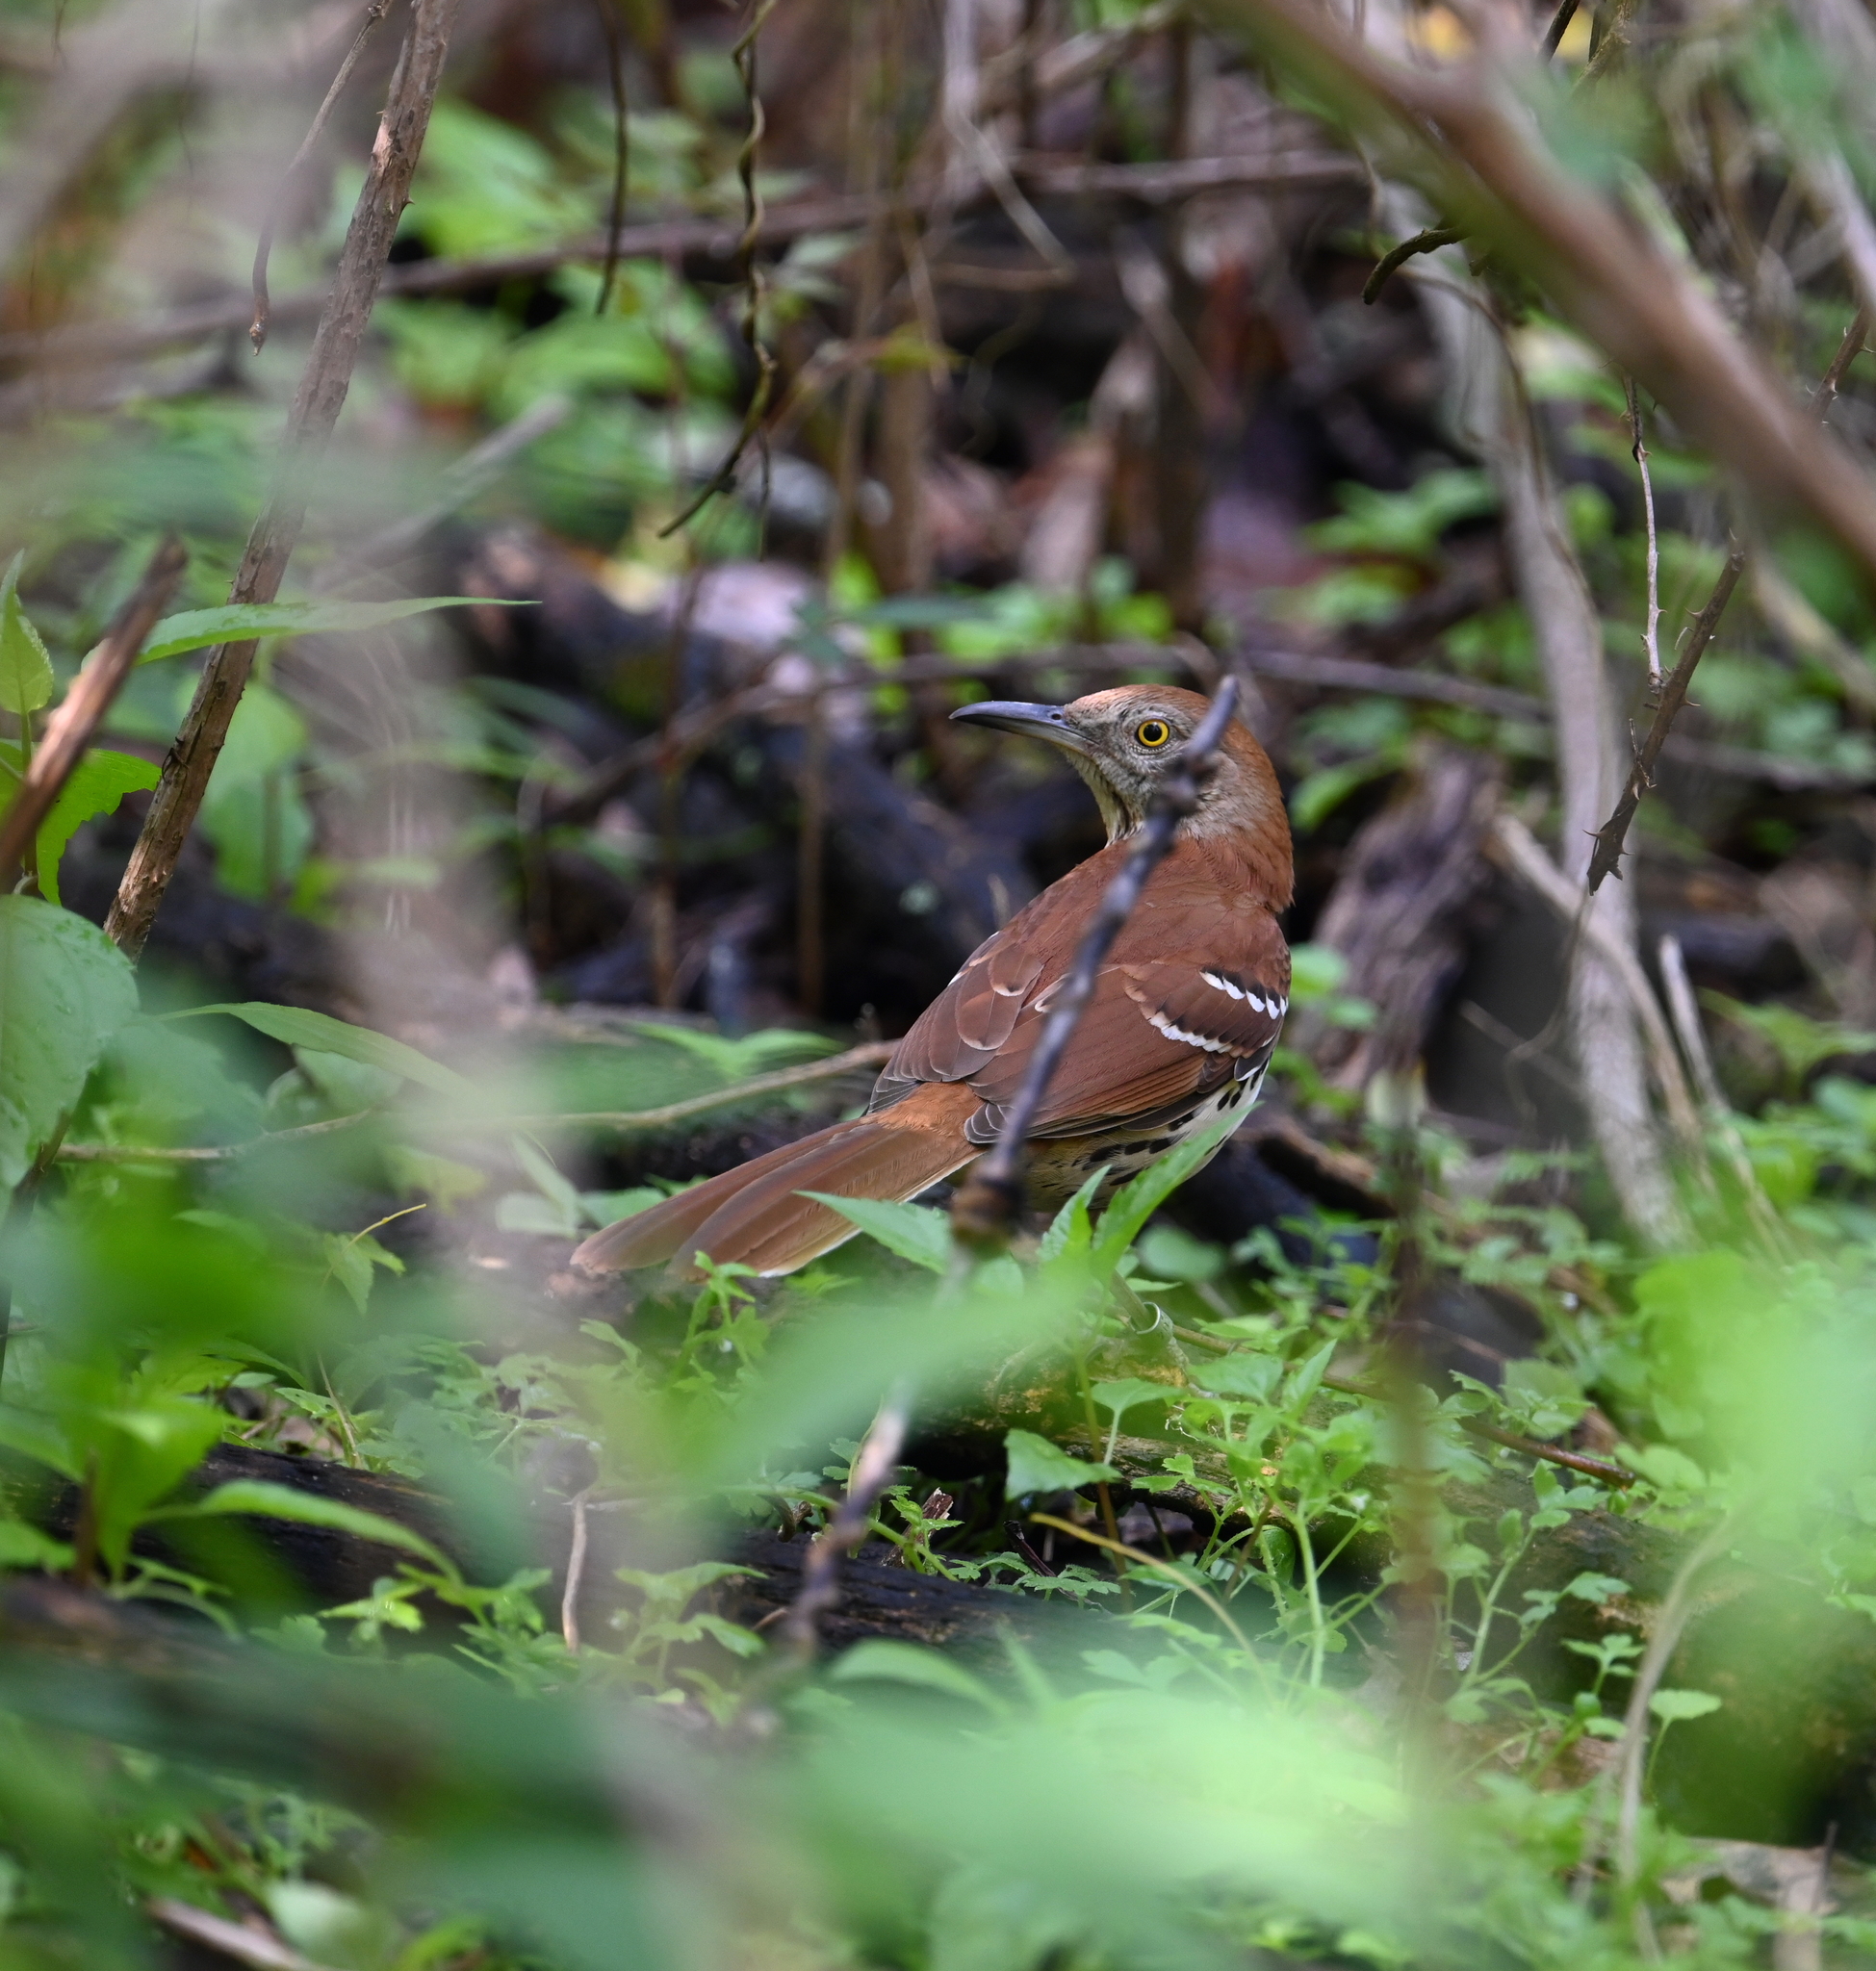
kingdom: Animalia
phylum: Chordata
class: Aves
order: Passeriformes
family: Mimidae
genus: Toxostoma
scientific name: Toxostoma rufum
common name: Brown thrasher
